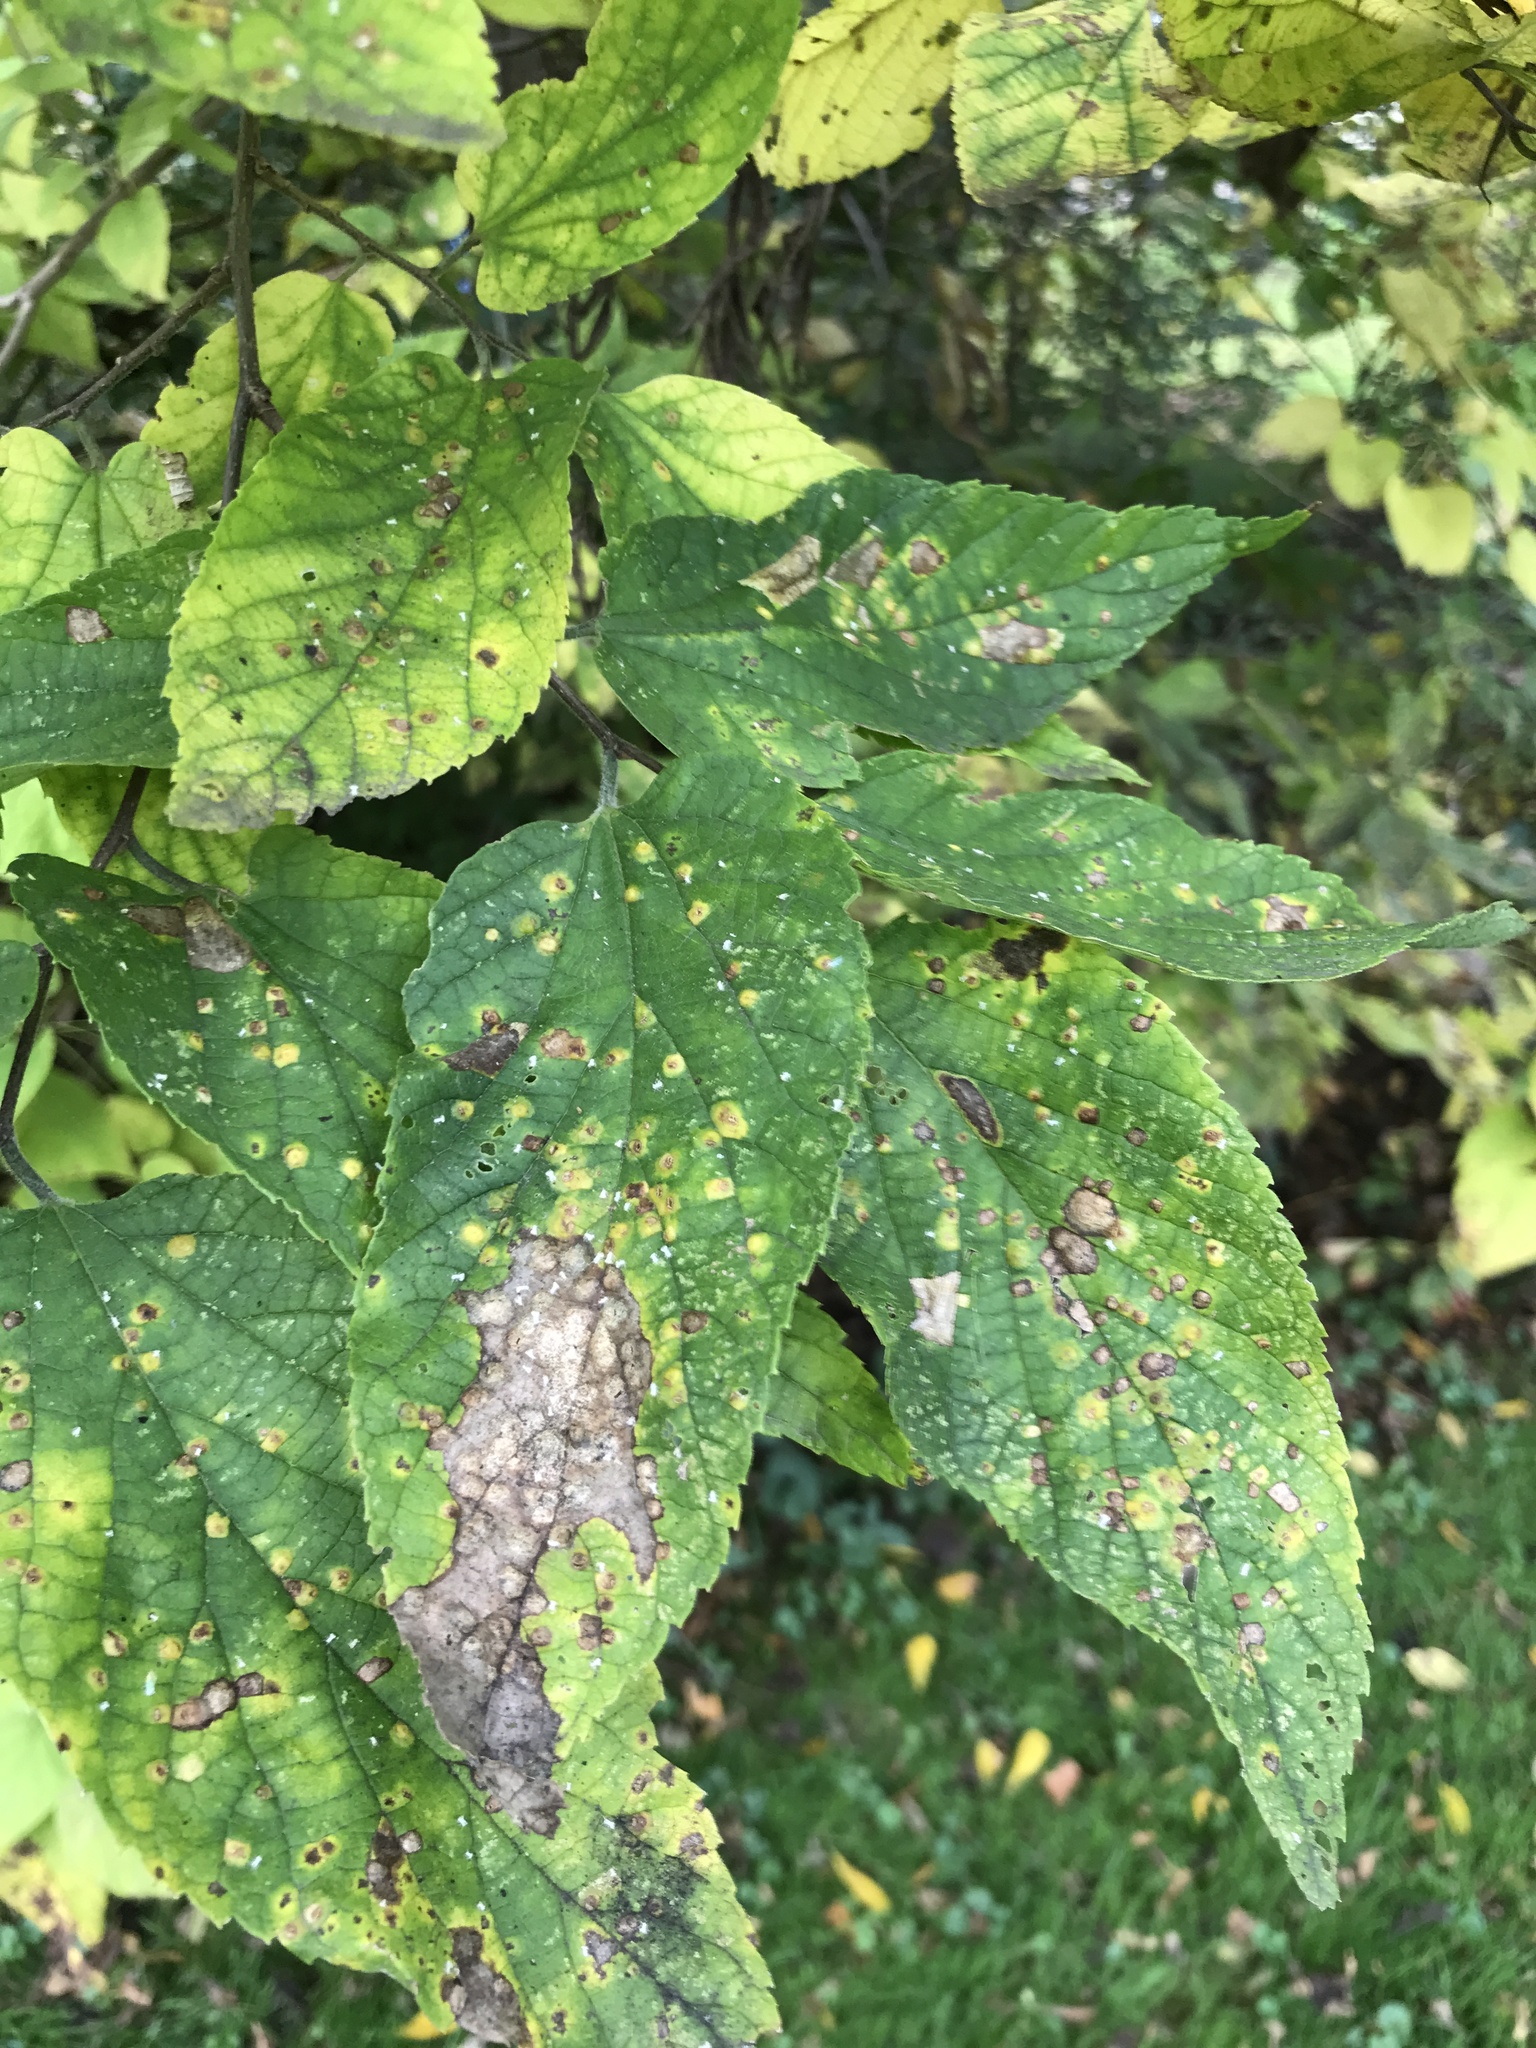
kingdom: Animalia
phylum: Arthropoda
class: Insecta
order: Hemiptera
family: Aphalaridae
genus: Pachypsylla
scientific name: Pachypsylla celtidismamma
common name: Hackberry nipplegall psyllid
